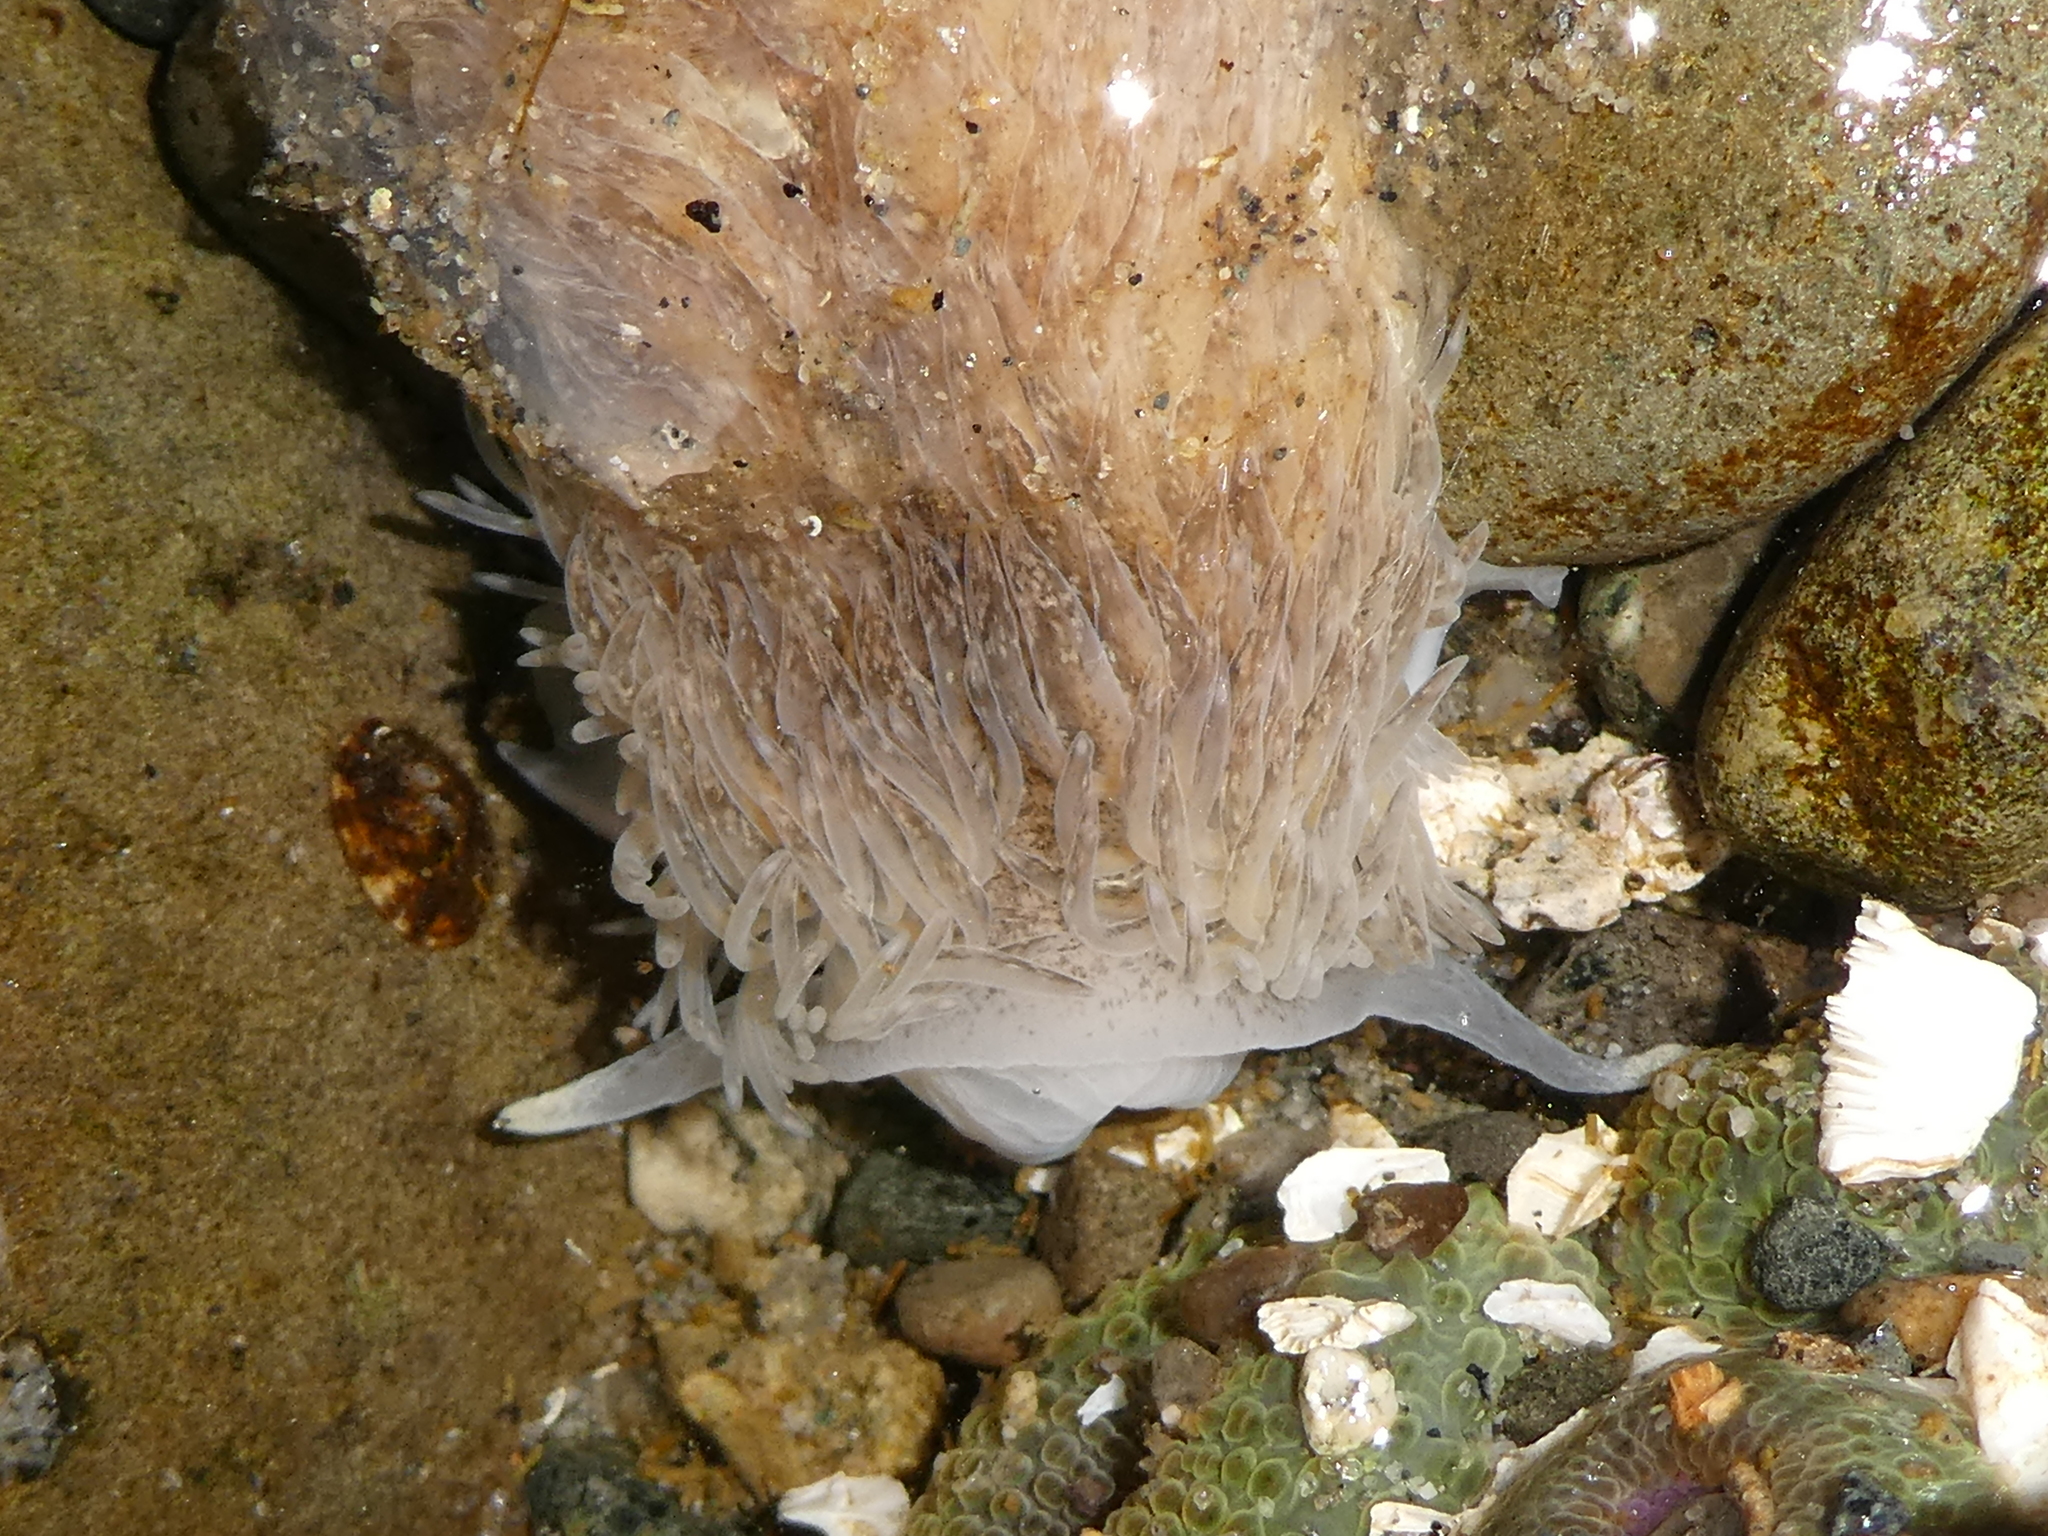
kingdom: Animalia
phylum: Mollusca
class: Gastropoda
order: Nudibranchia
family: Aeolidiidae
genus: Aeolidia
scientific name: Aeolidia loui
